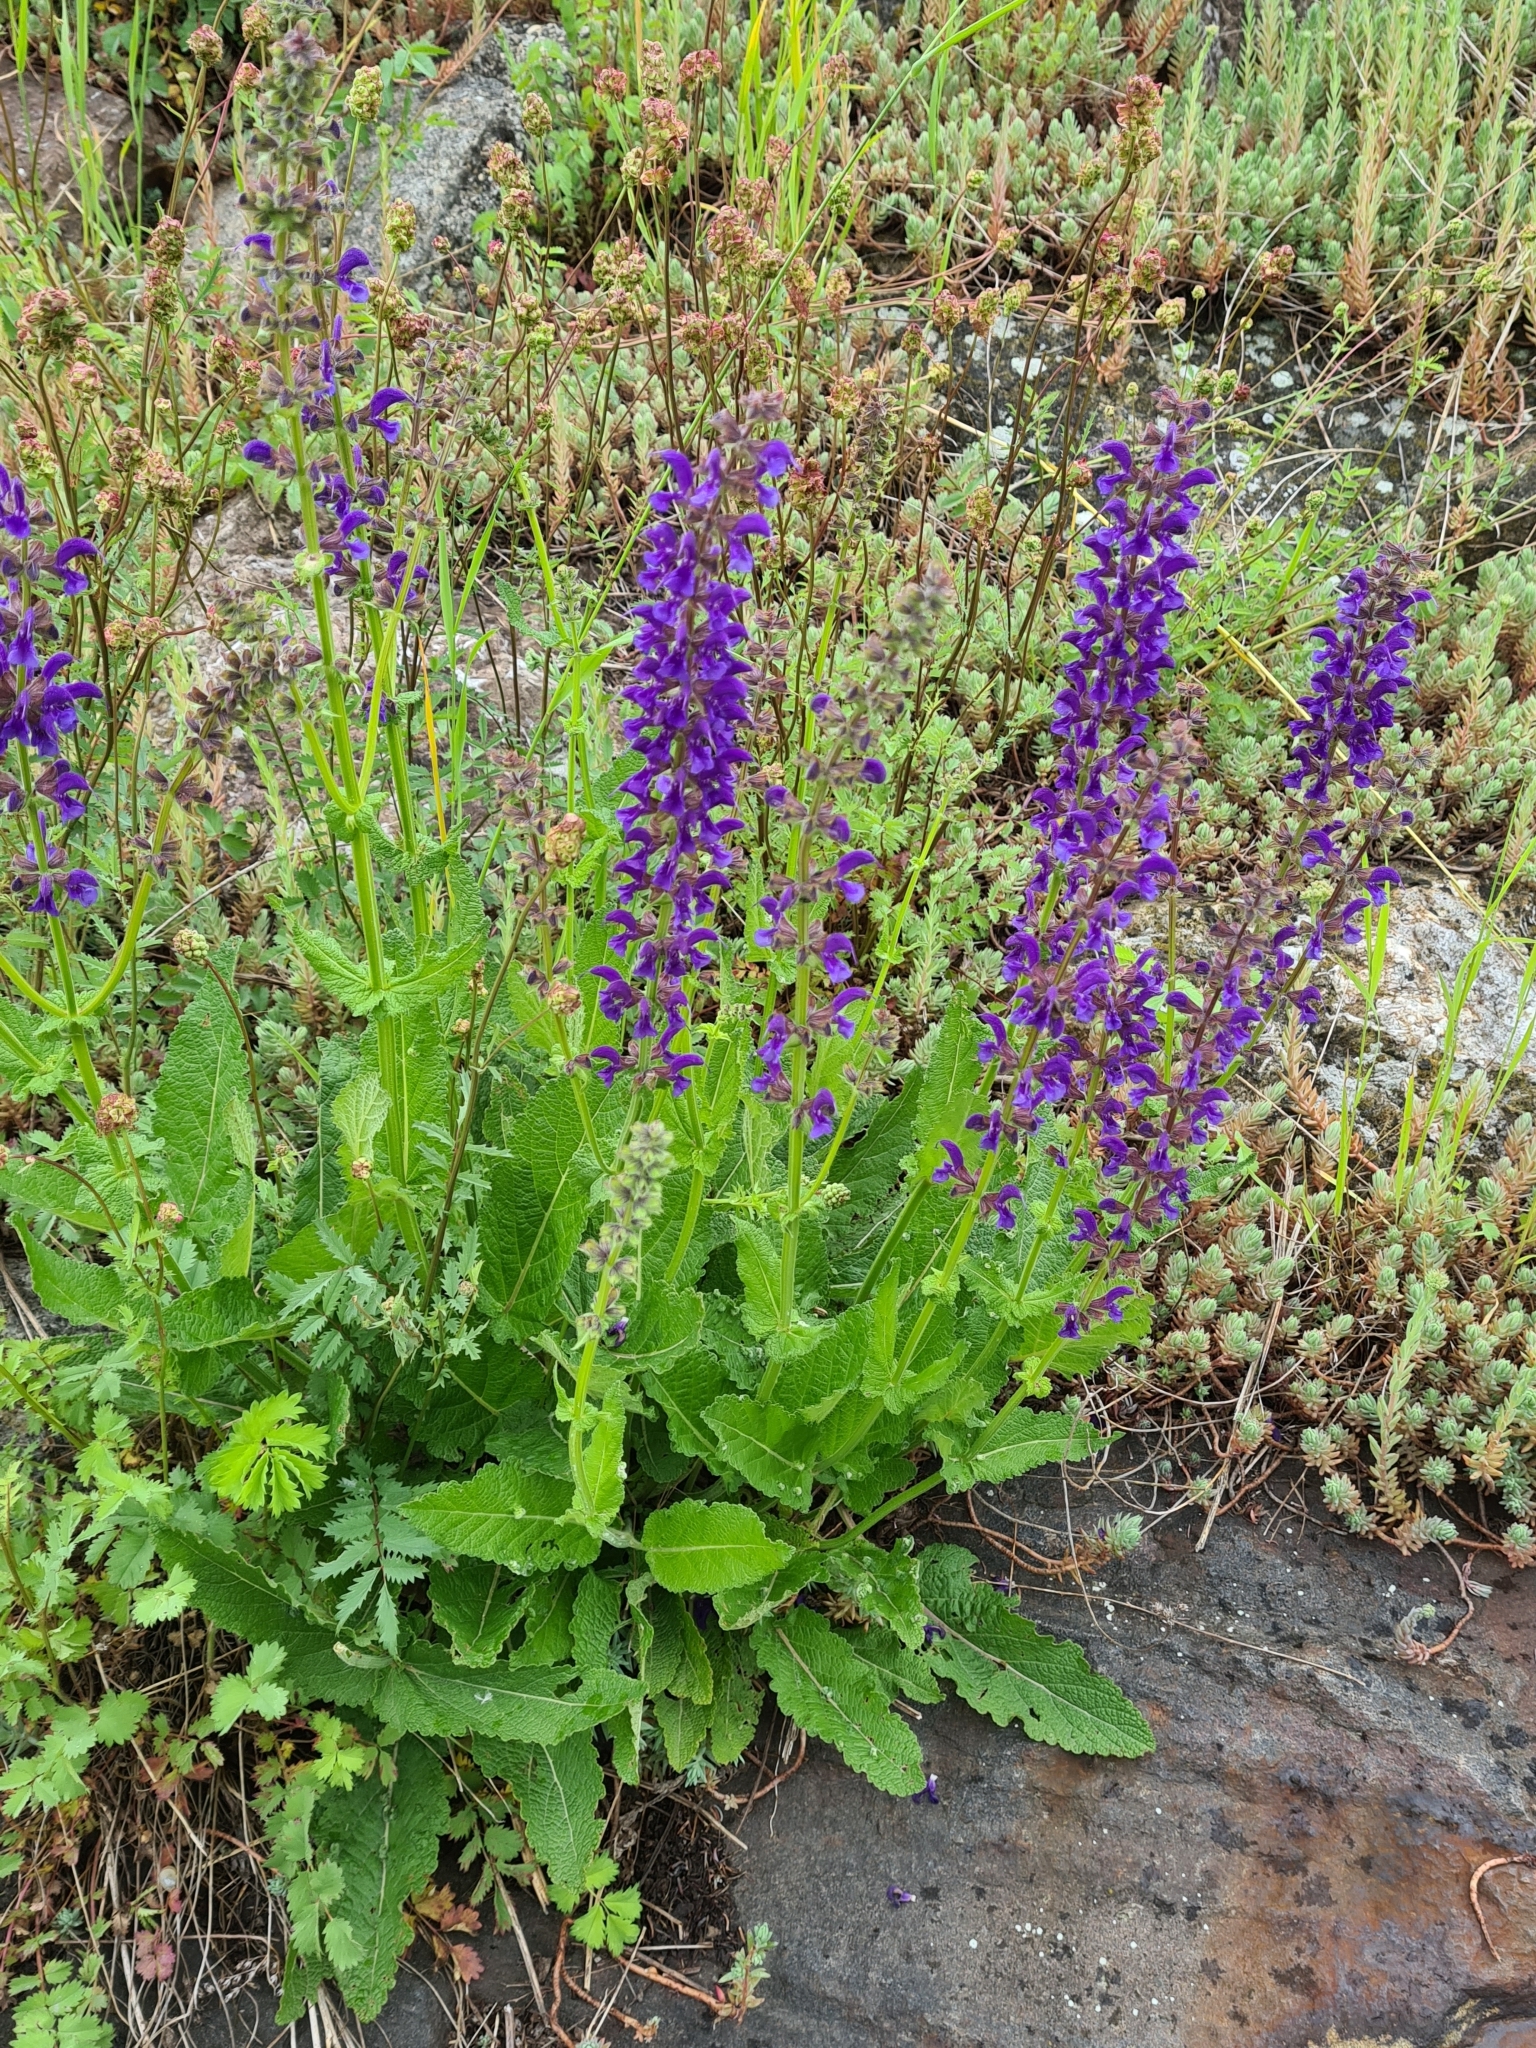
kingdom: Plantae
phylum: Tracheophyta
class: Magnoliopsida
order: Lamiales
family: Lamiaceae
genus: Salvia
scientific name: Salvia pratensis
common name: Meadow sage
